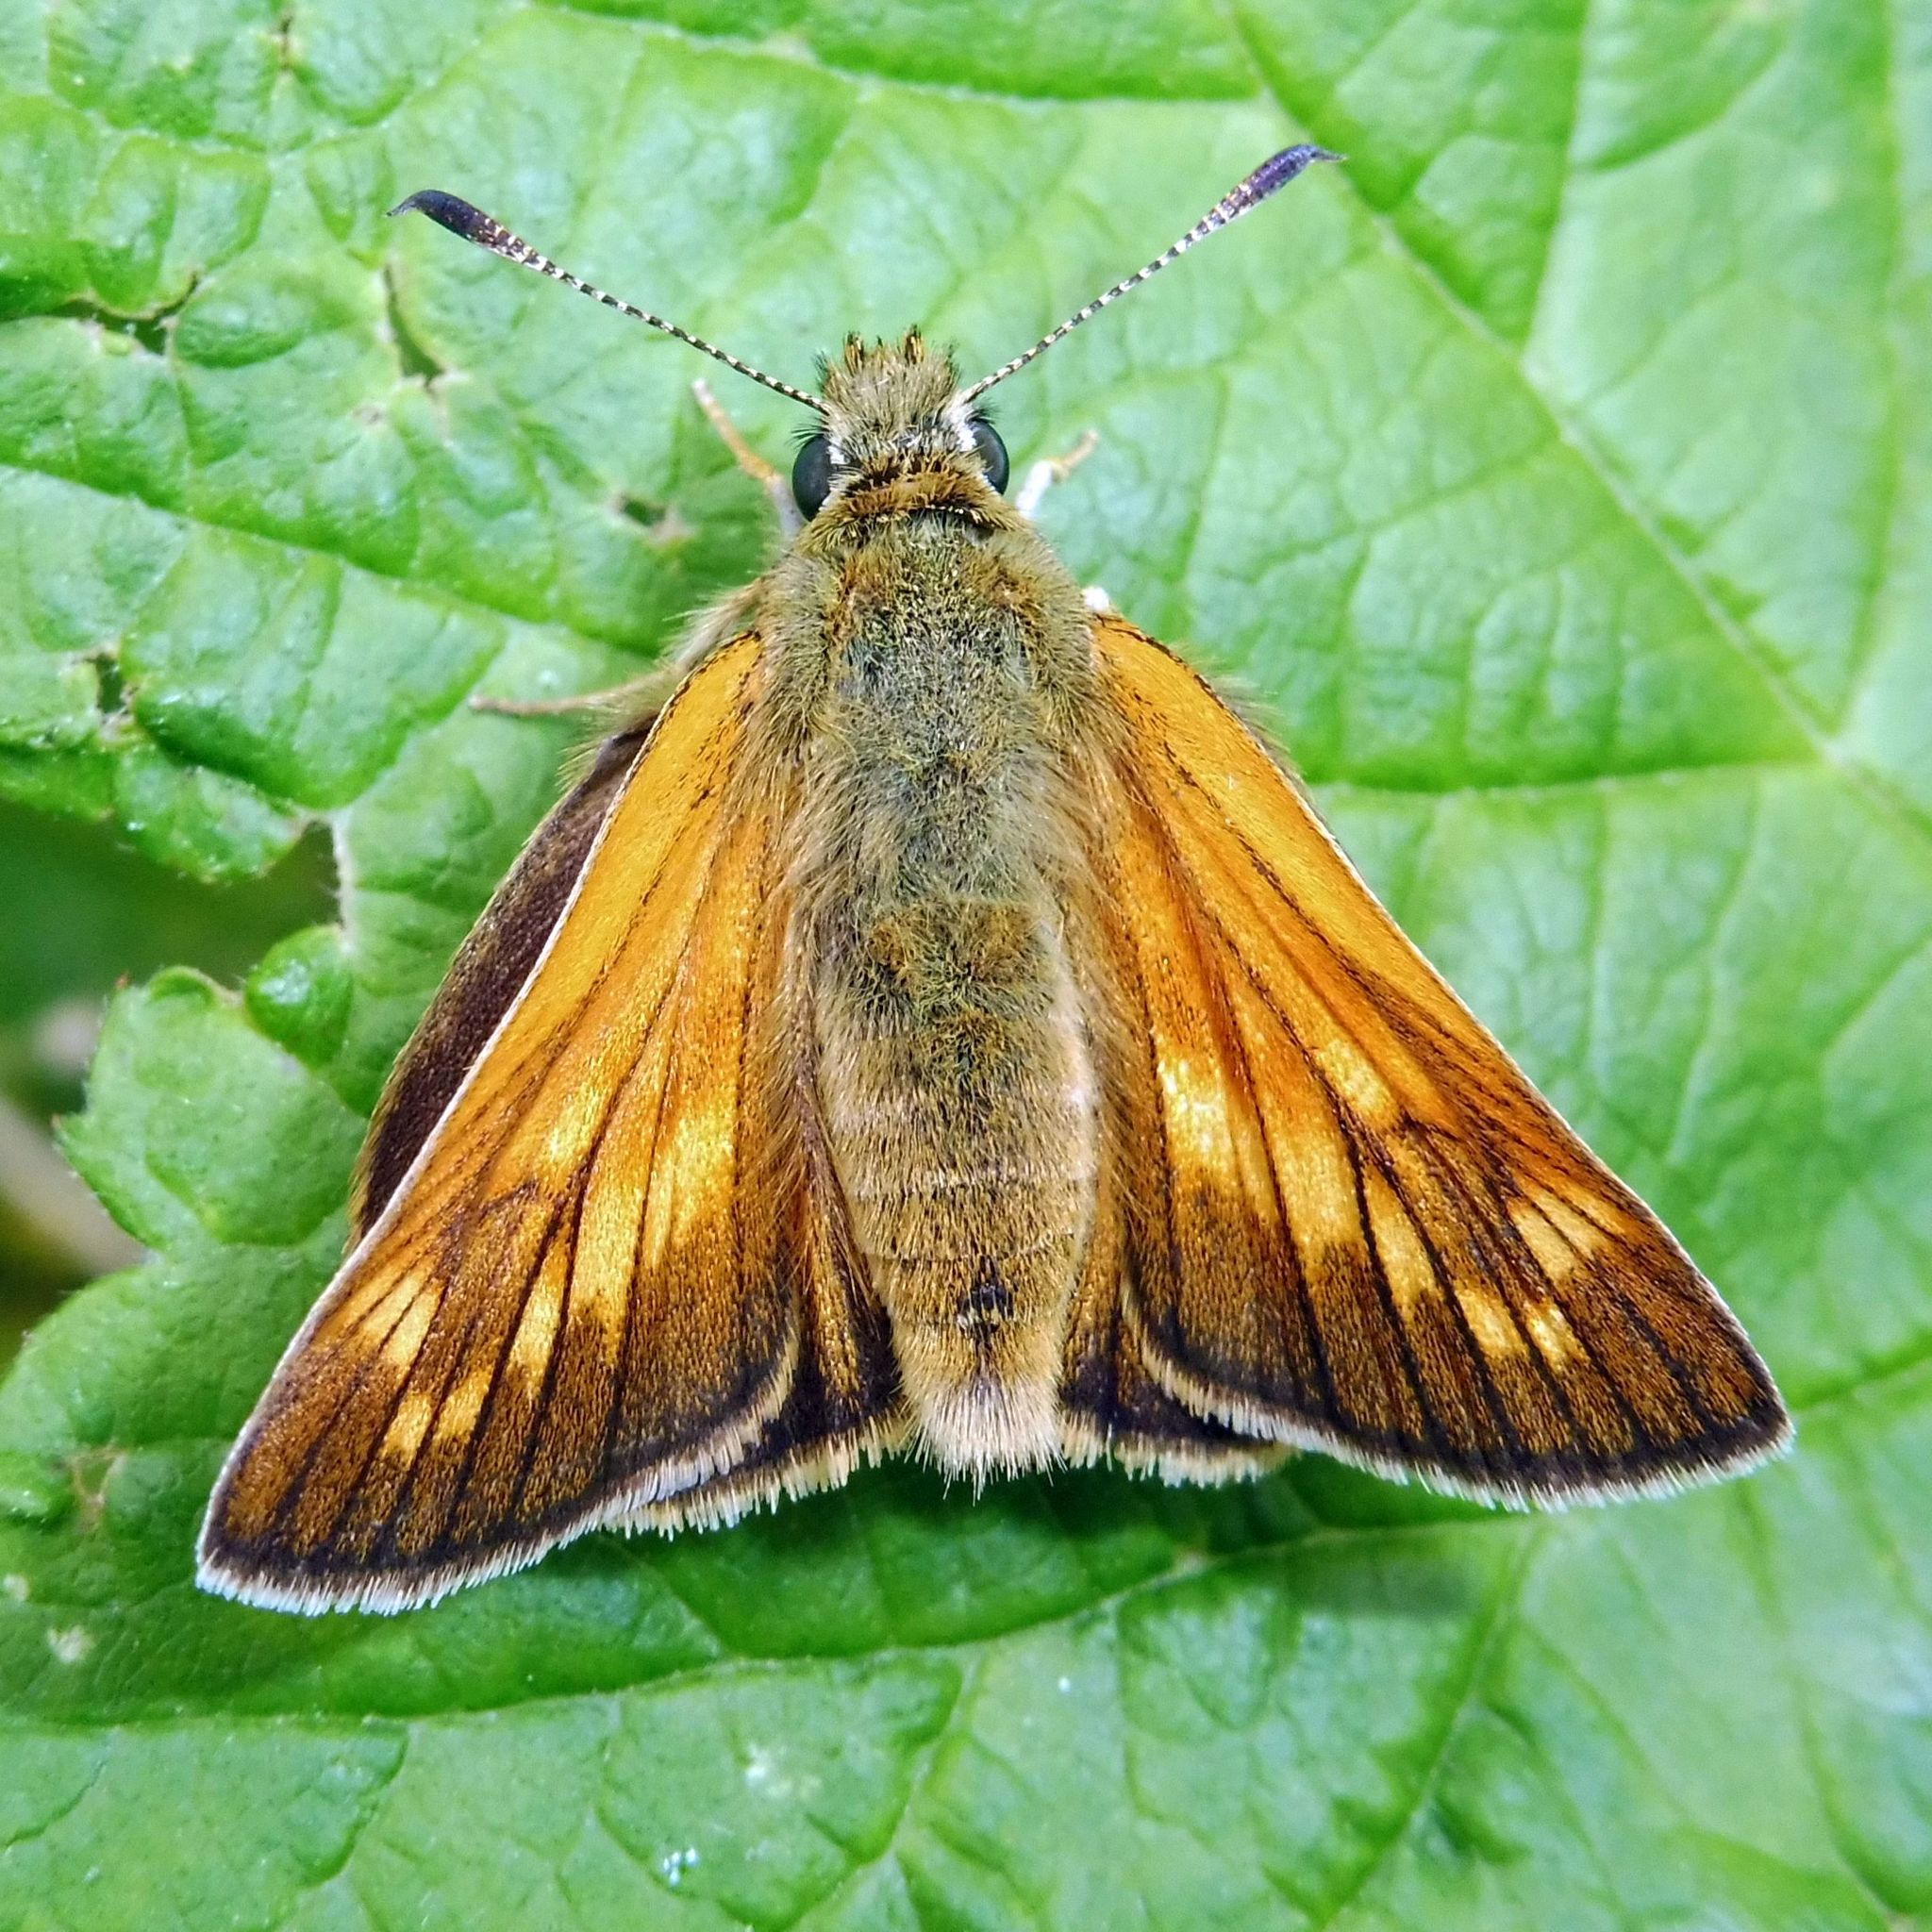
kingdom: Animalia
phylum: Arthropoda
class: Insecta
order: Lepidoptera
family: Hesperiidae
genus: Ochlodes
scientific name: Ochlodes venata
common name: Large skipper
